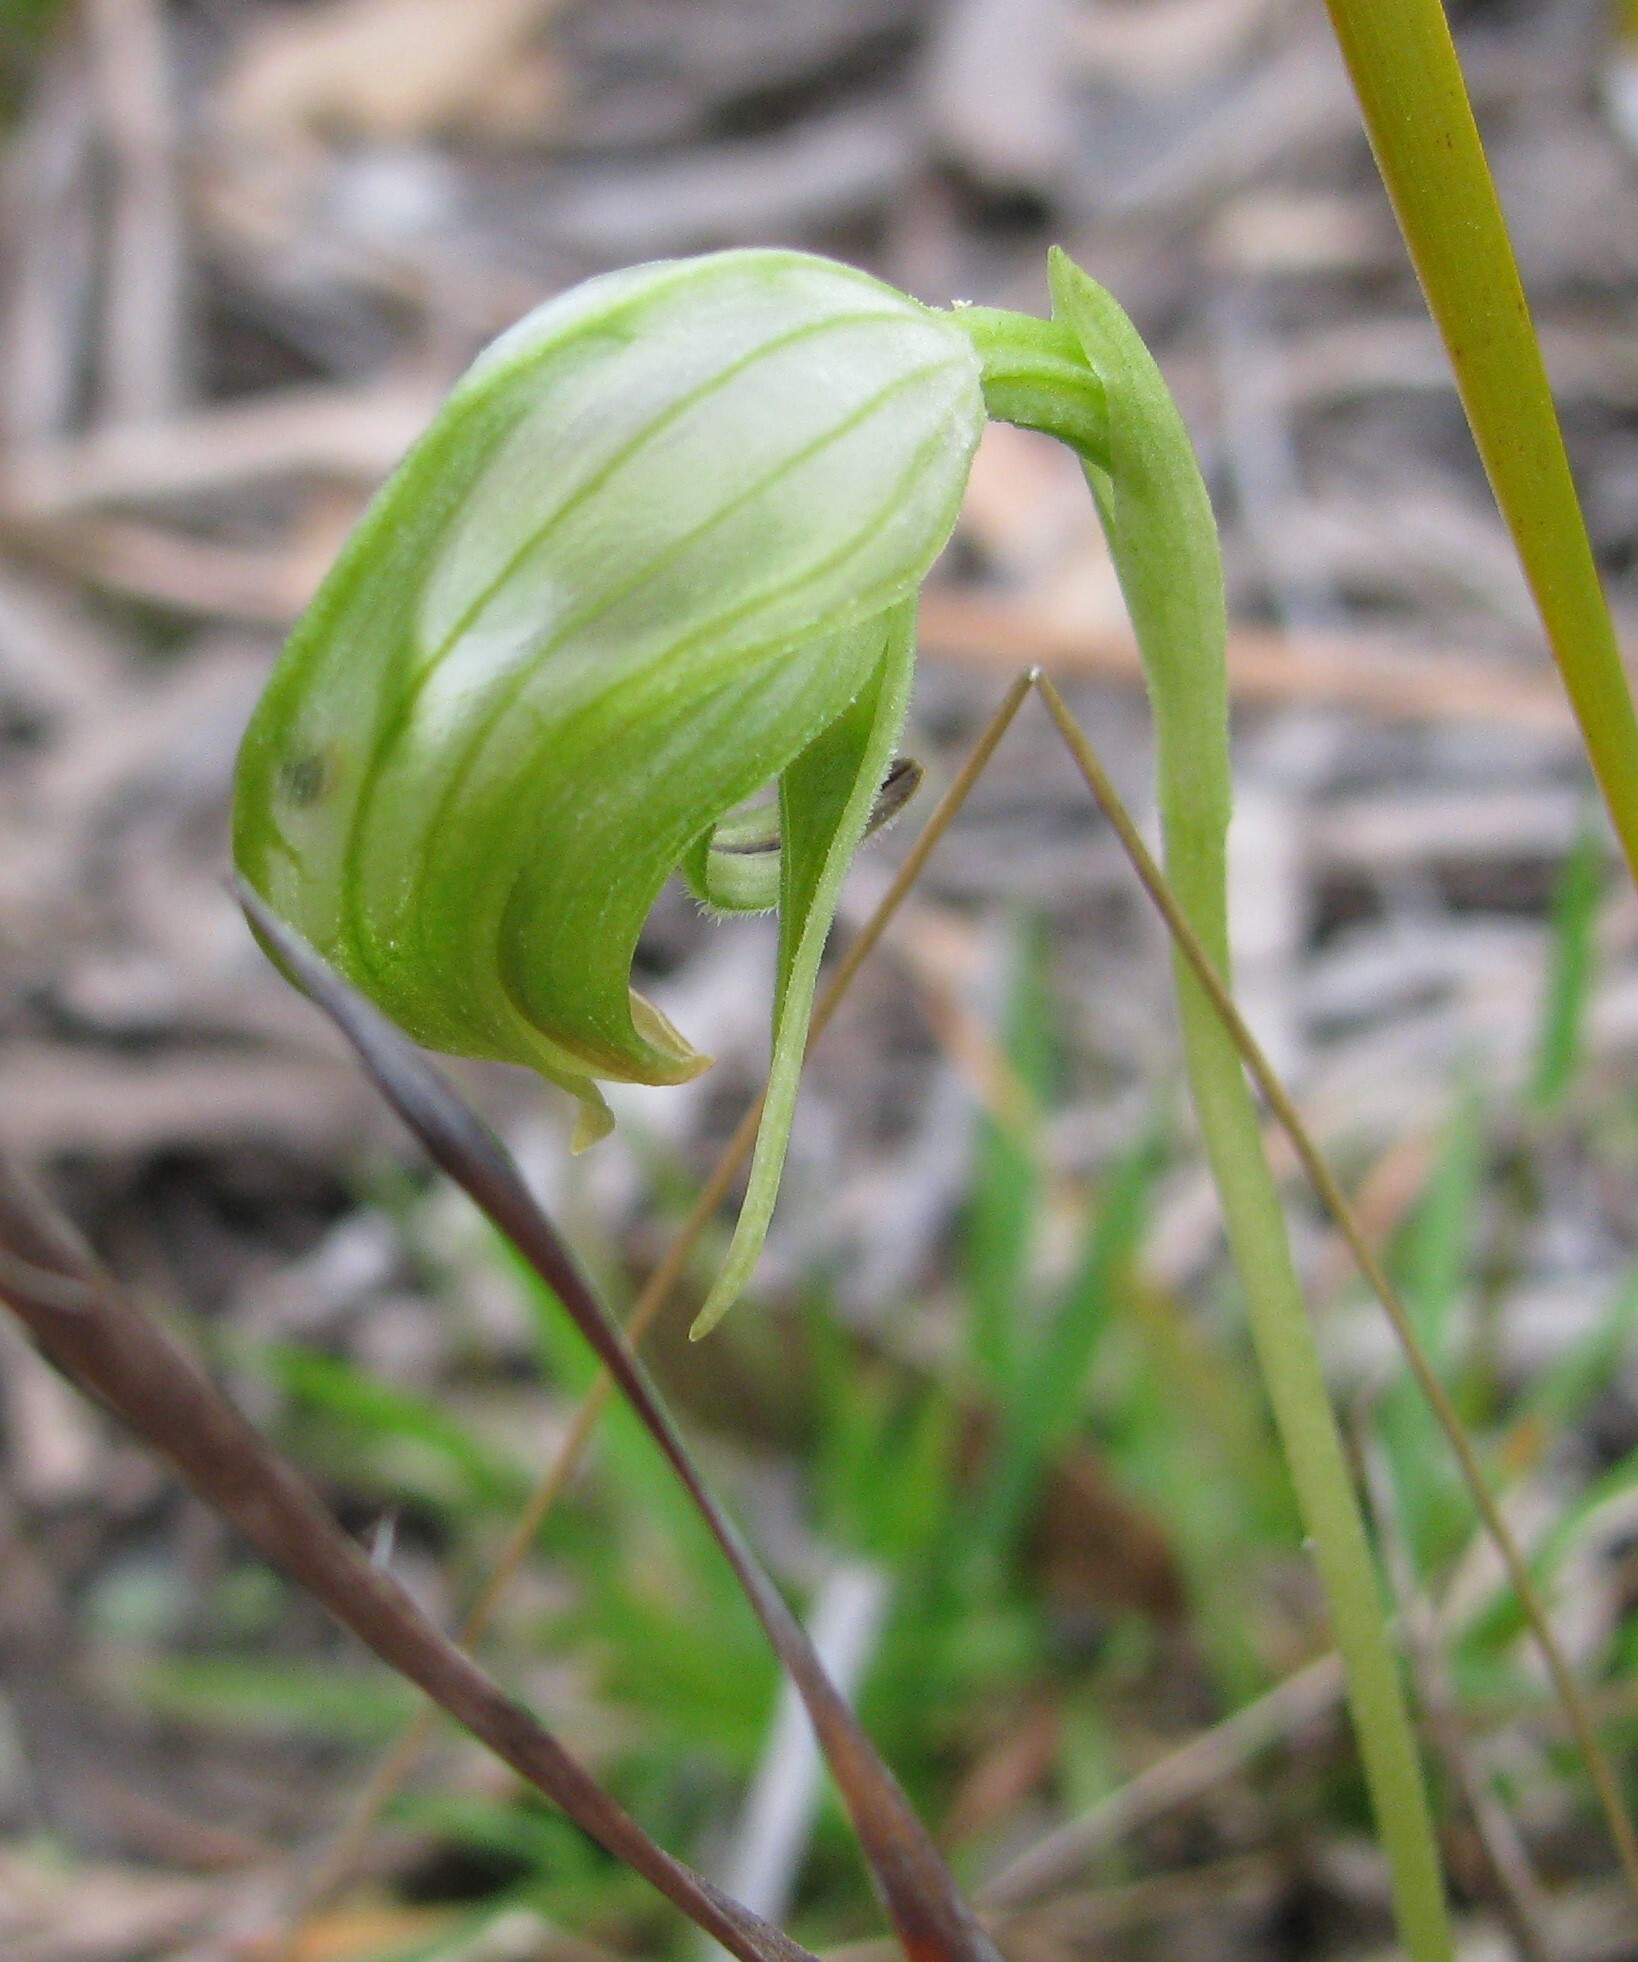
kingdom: Plantae
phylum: Tracheophyta
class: Liliopsida
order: Asparagales
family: Orchidaceae
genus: Pterostylis
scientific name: Pterostylis nutans
